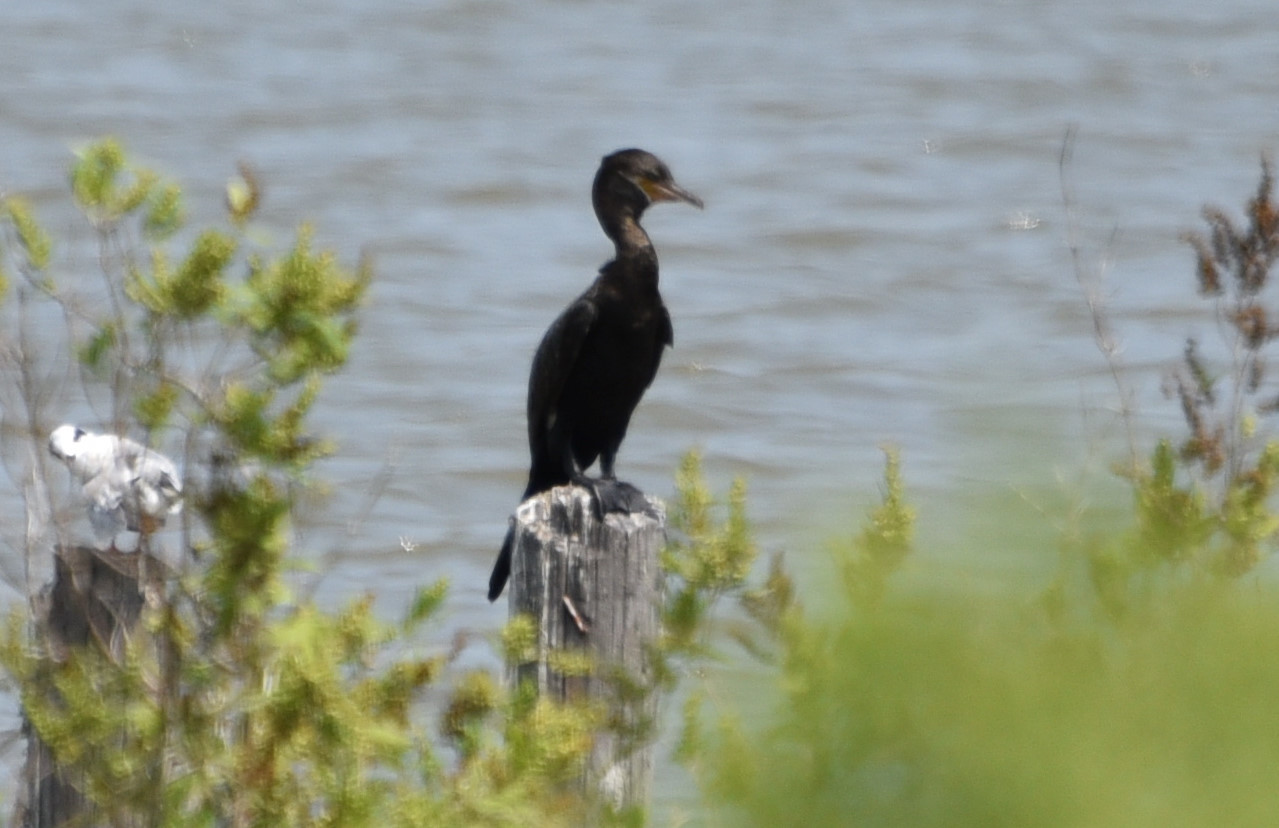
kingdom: Animalia
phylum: Chordata
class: Aves
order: Suliformes
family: Phalacrocoracidae
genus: Phalacrocorax
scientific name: Phalacrocorax brasilianus
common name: Neotropic cormorant
